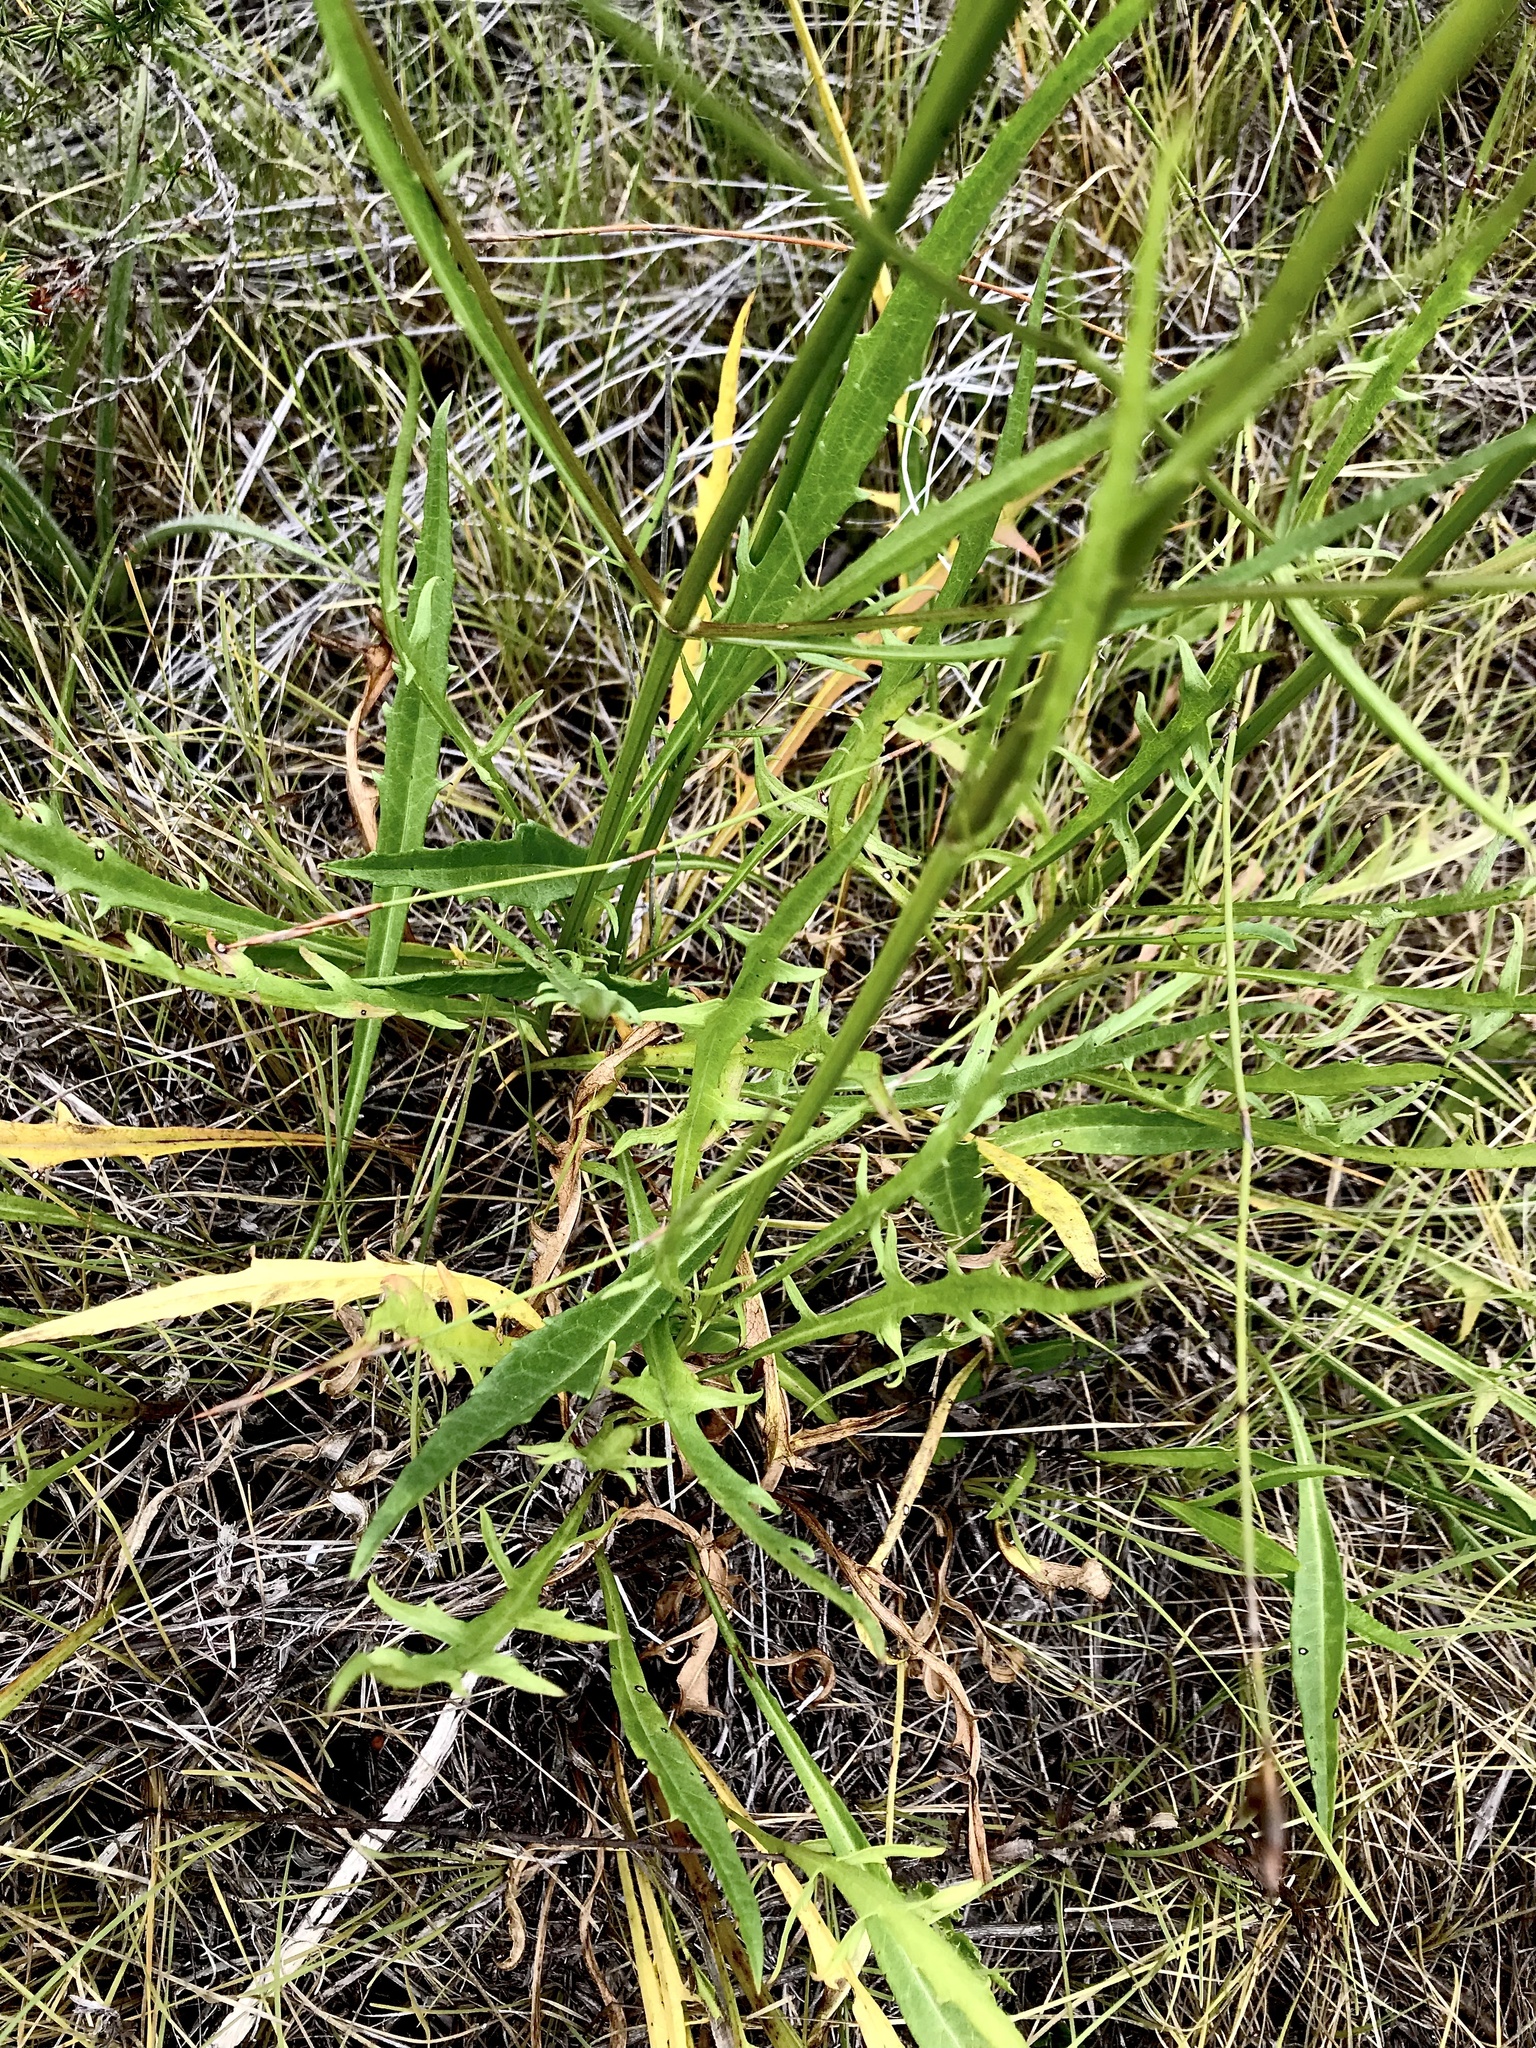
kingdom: Plantae
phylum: Tracheophyta
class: Magnoliopsida
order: Dipsacales
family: Caprifoliaceae
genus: Cephalaria
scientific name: Cephalaria humilis
